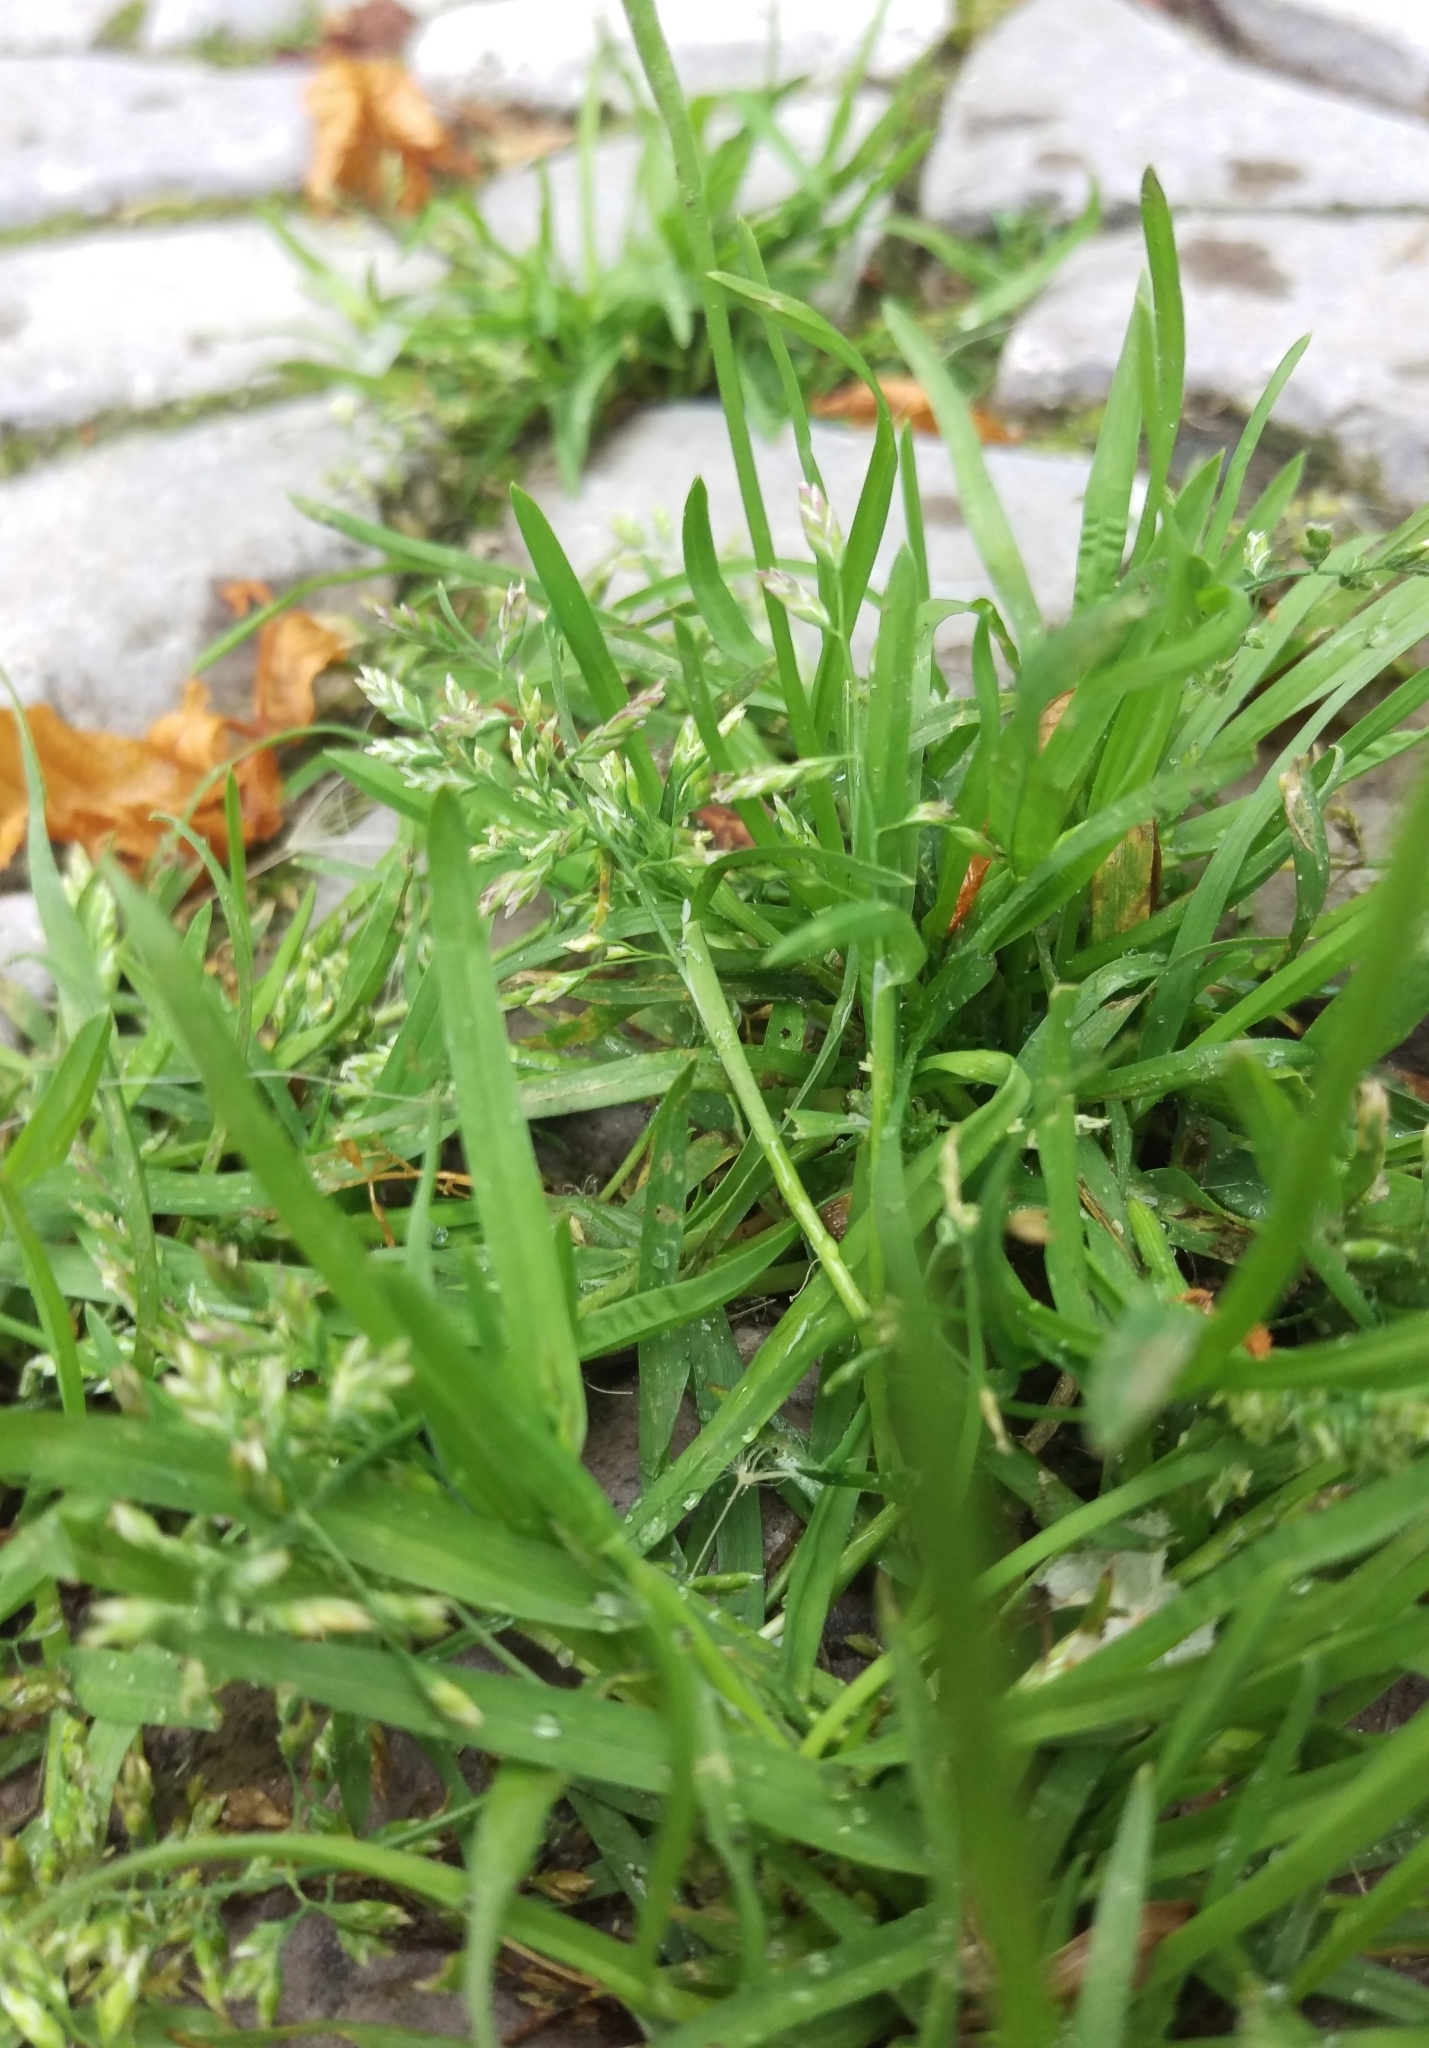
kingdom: Plantae
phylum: Tracheophyta
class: Liliopsida
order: Poales
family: Poaceae
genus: Poa
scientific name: Poa annua
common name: Annual bluegrass
